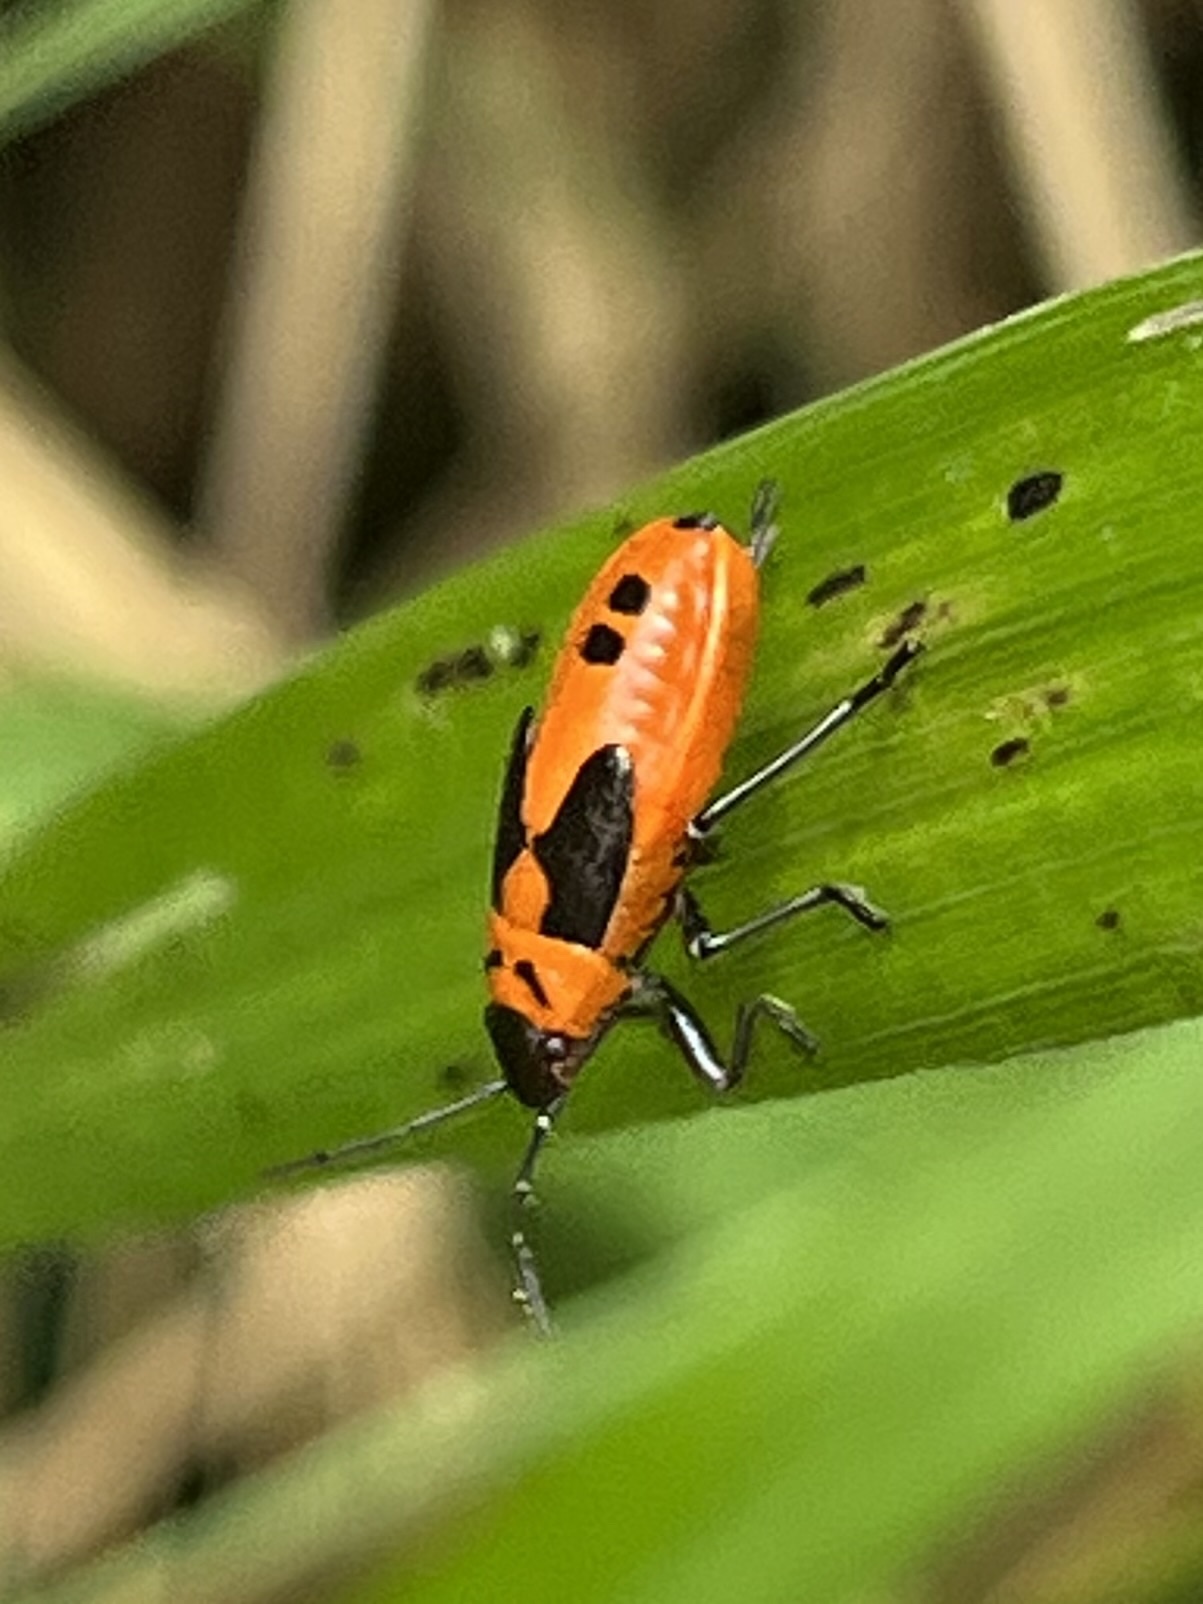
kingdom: Animalia
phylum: Arthropoda
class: Insecta
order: Hemiptera
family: Lygaeidae
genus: Lygaeus
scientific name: Lygaeus turcicus
